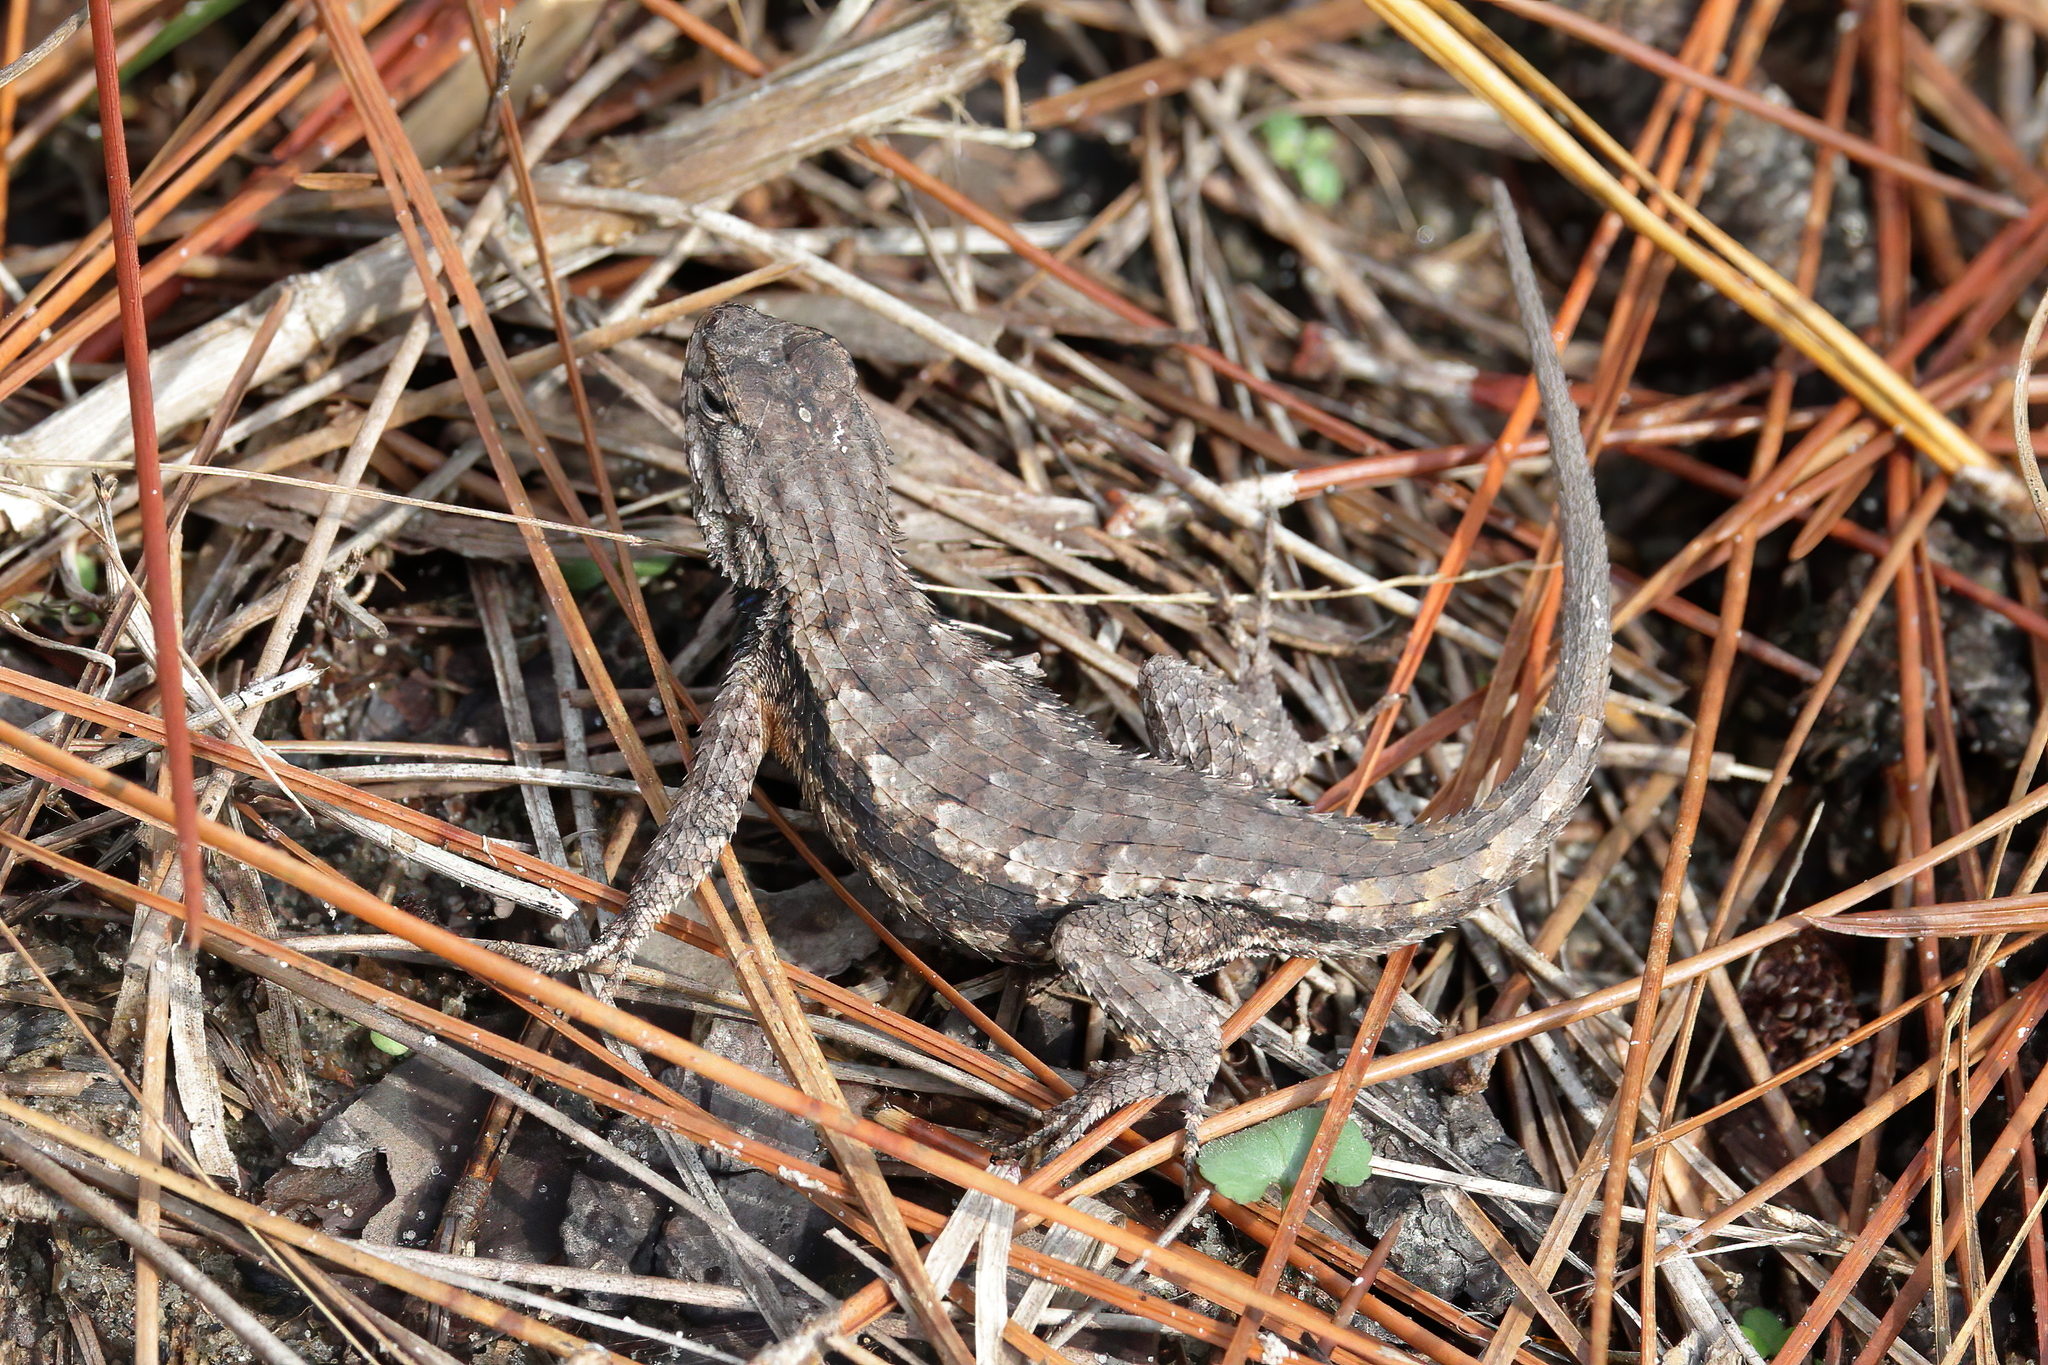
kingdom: Animalia
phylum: Chordata
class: Squamata
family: Phrynosomatidae
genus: Sceloporus
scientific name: Sceloporus undulatus
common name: Eastern fence lizard
